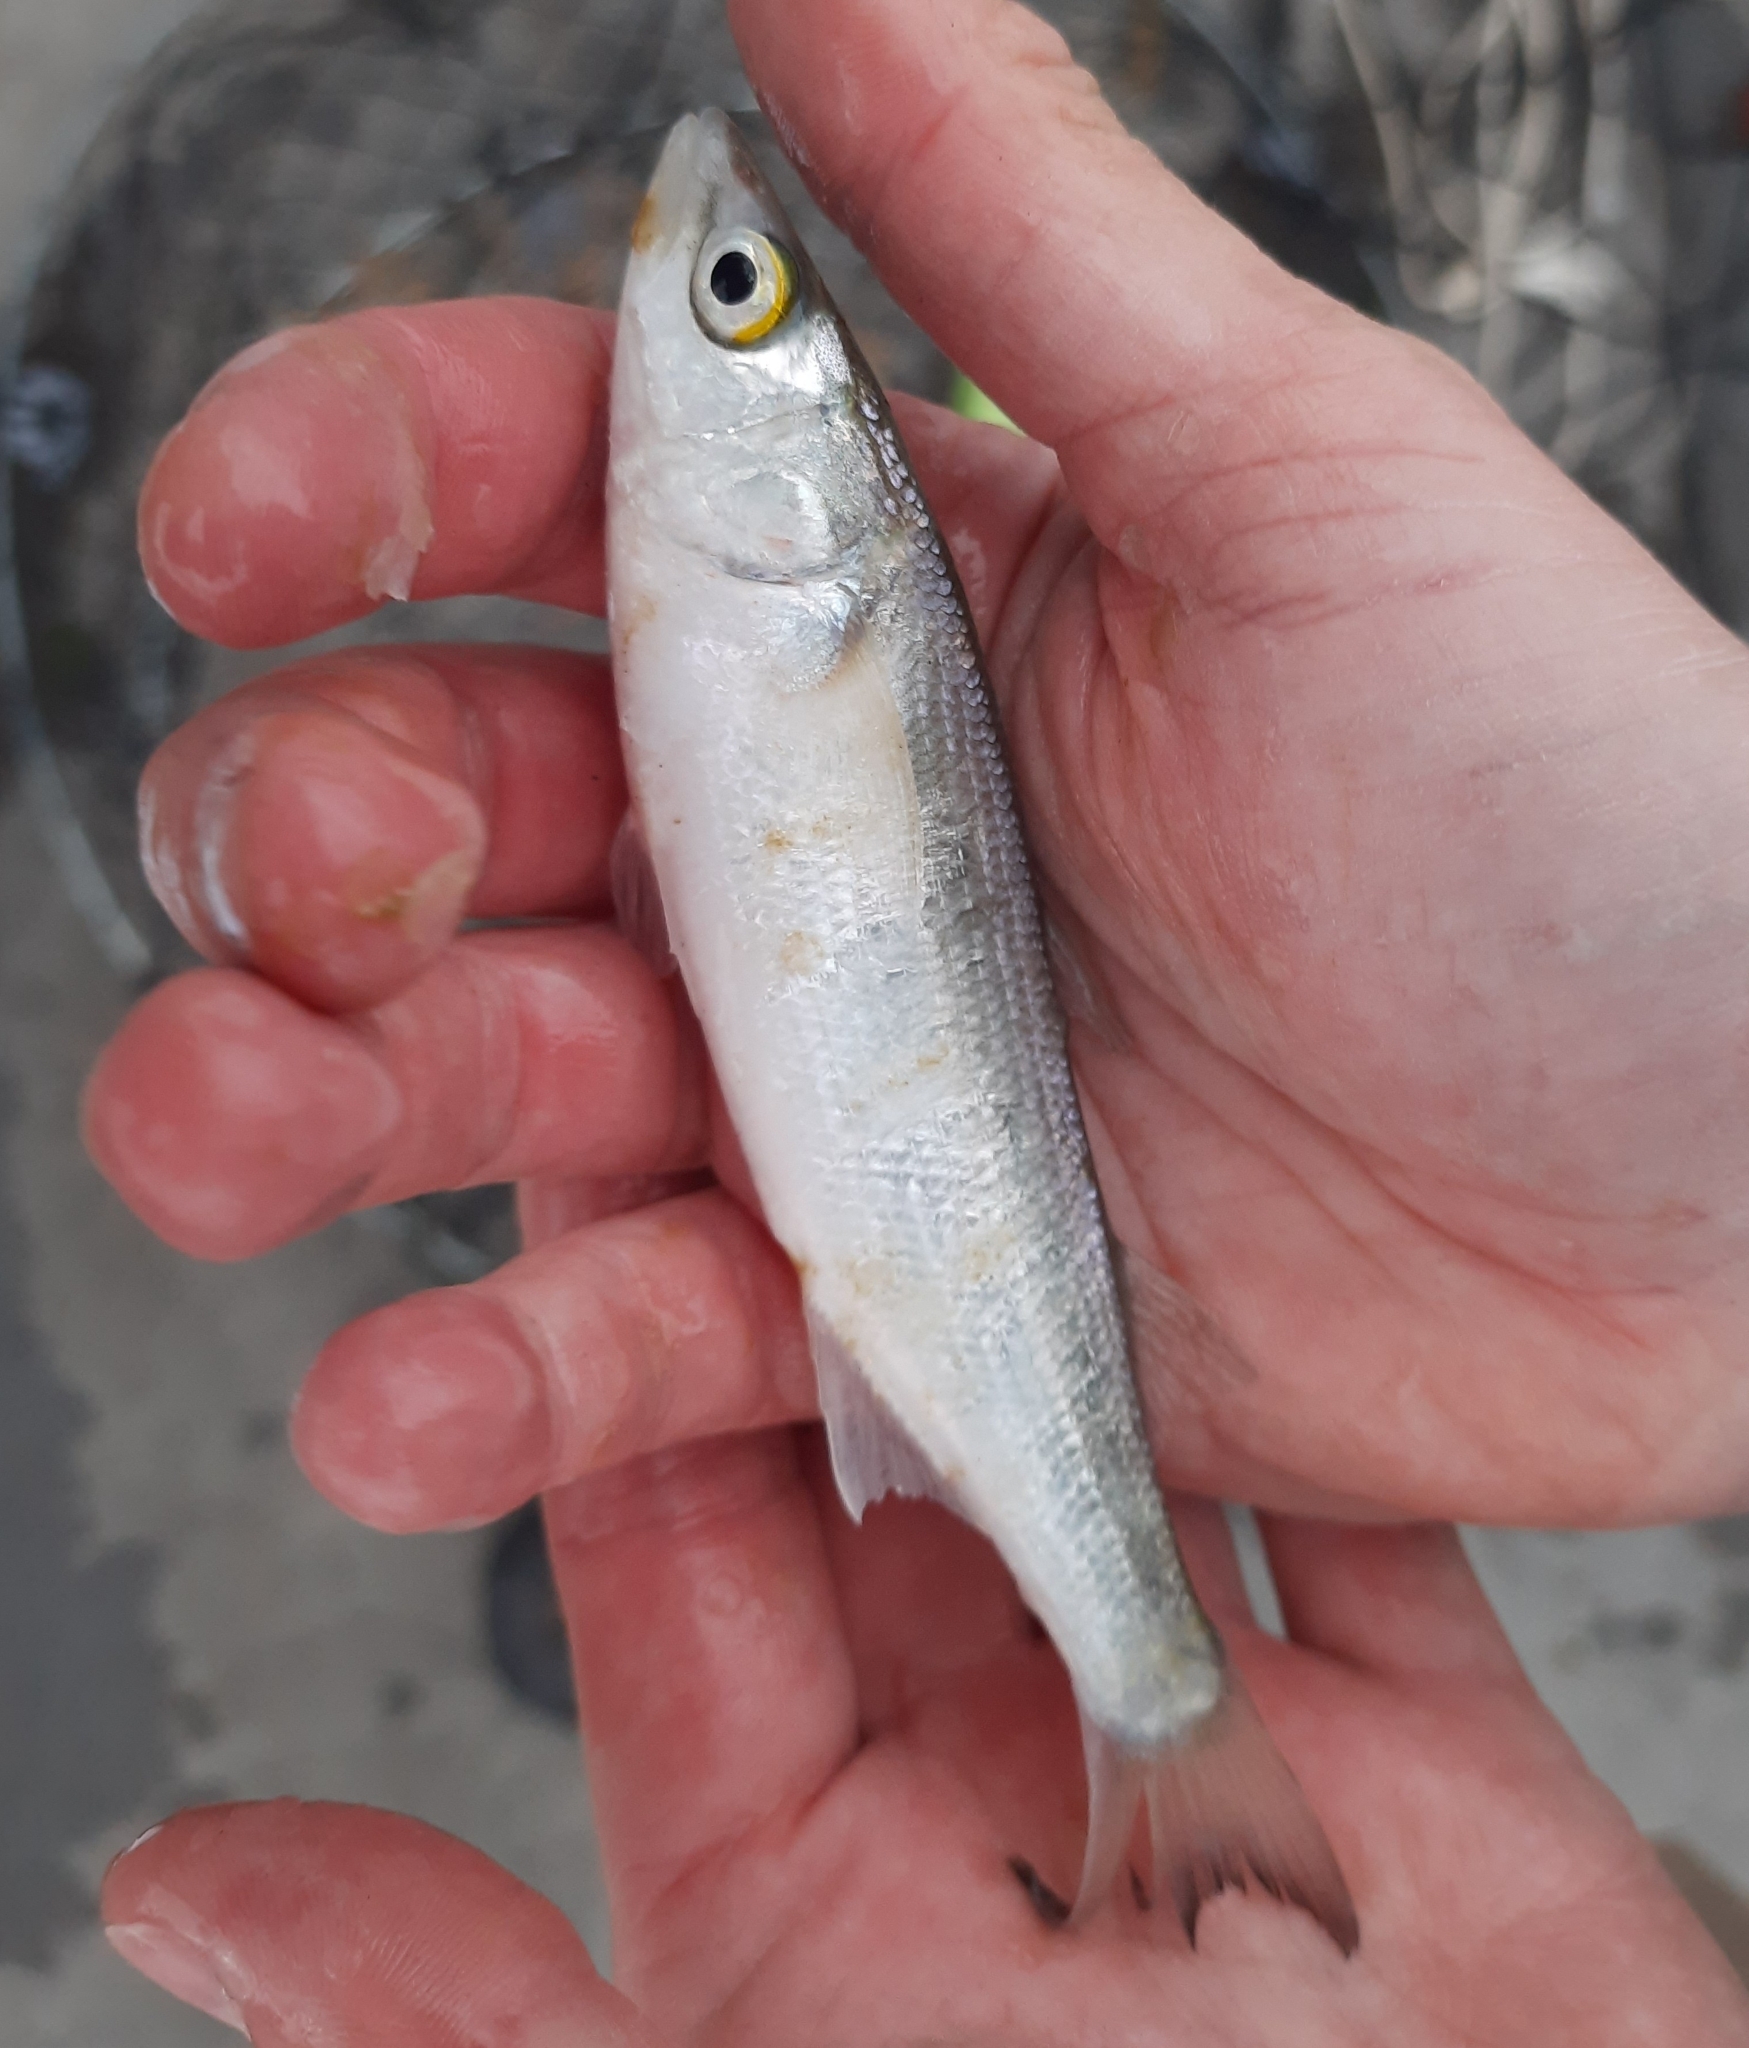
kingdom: Animalia
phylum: Chordata
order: Mugiliformes
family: Mugilidae
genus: Aldrichetta
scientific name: Aldrichetta forsteri
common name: Yellow-eye mullet
